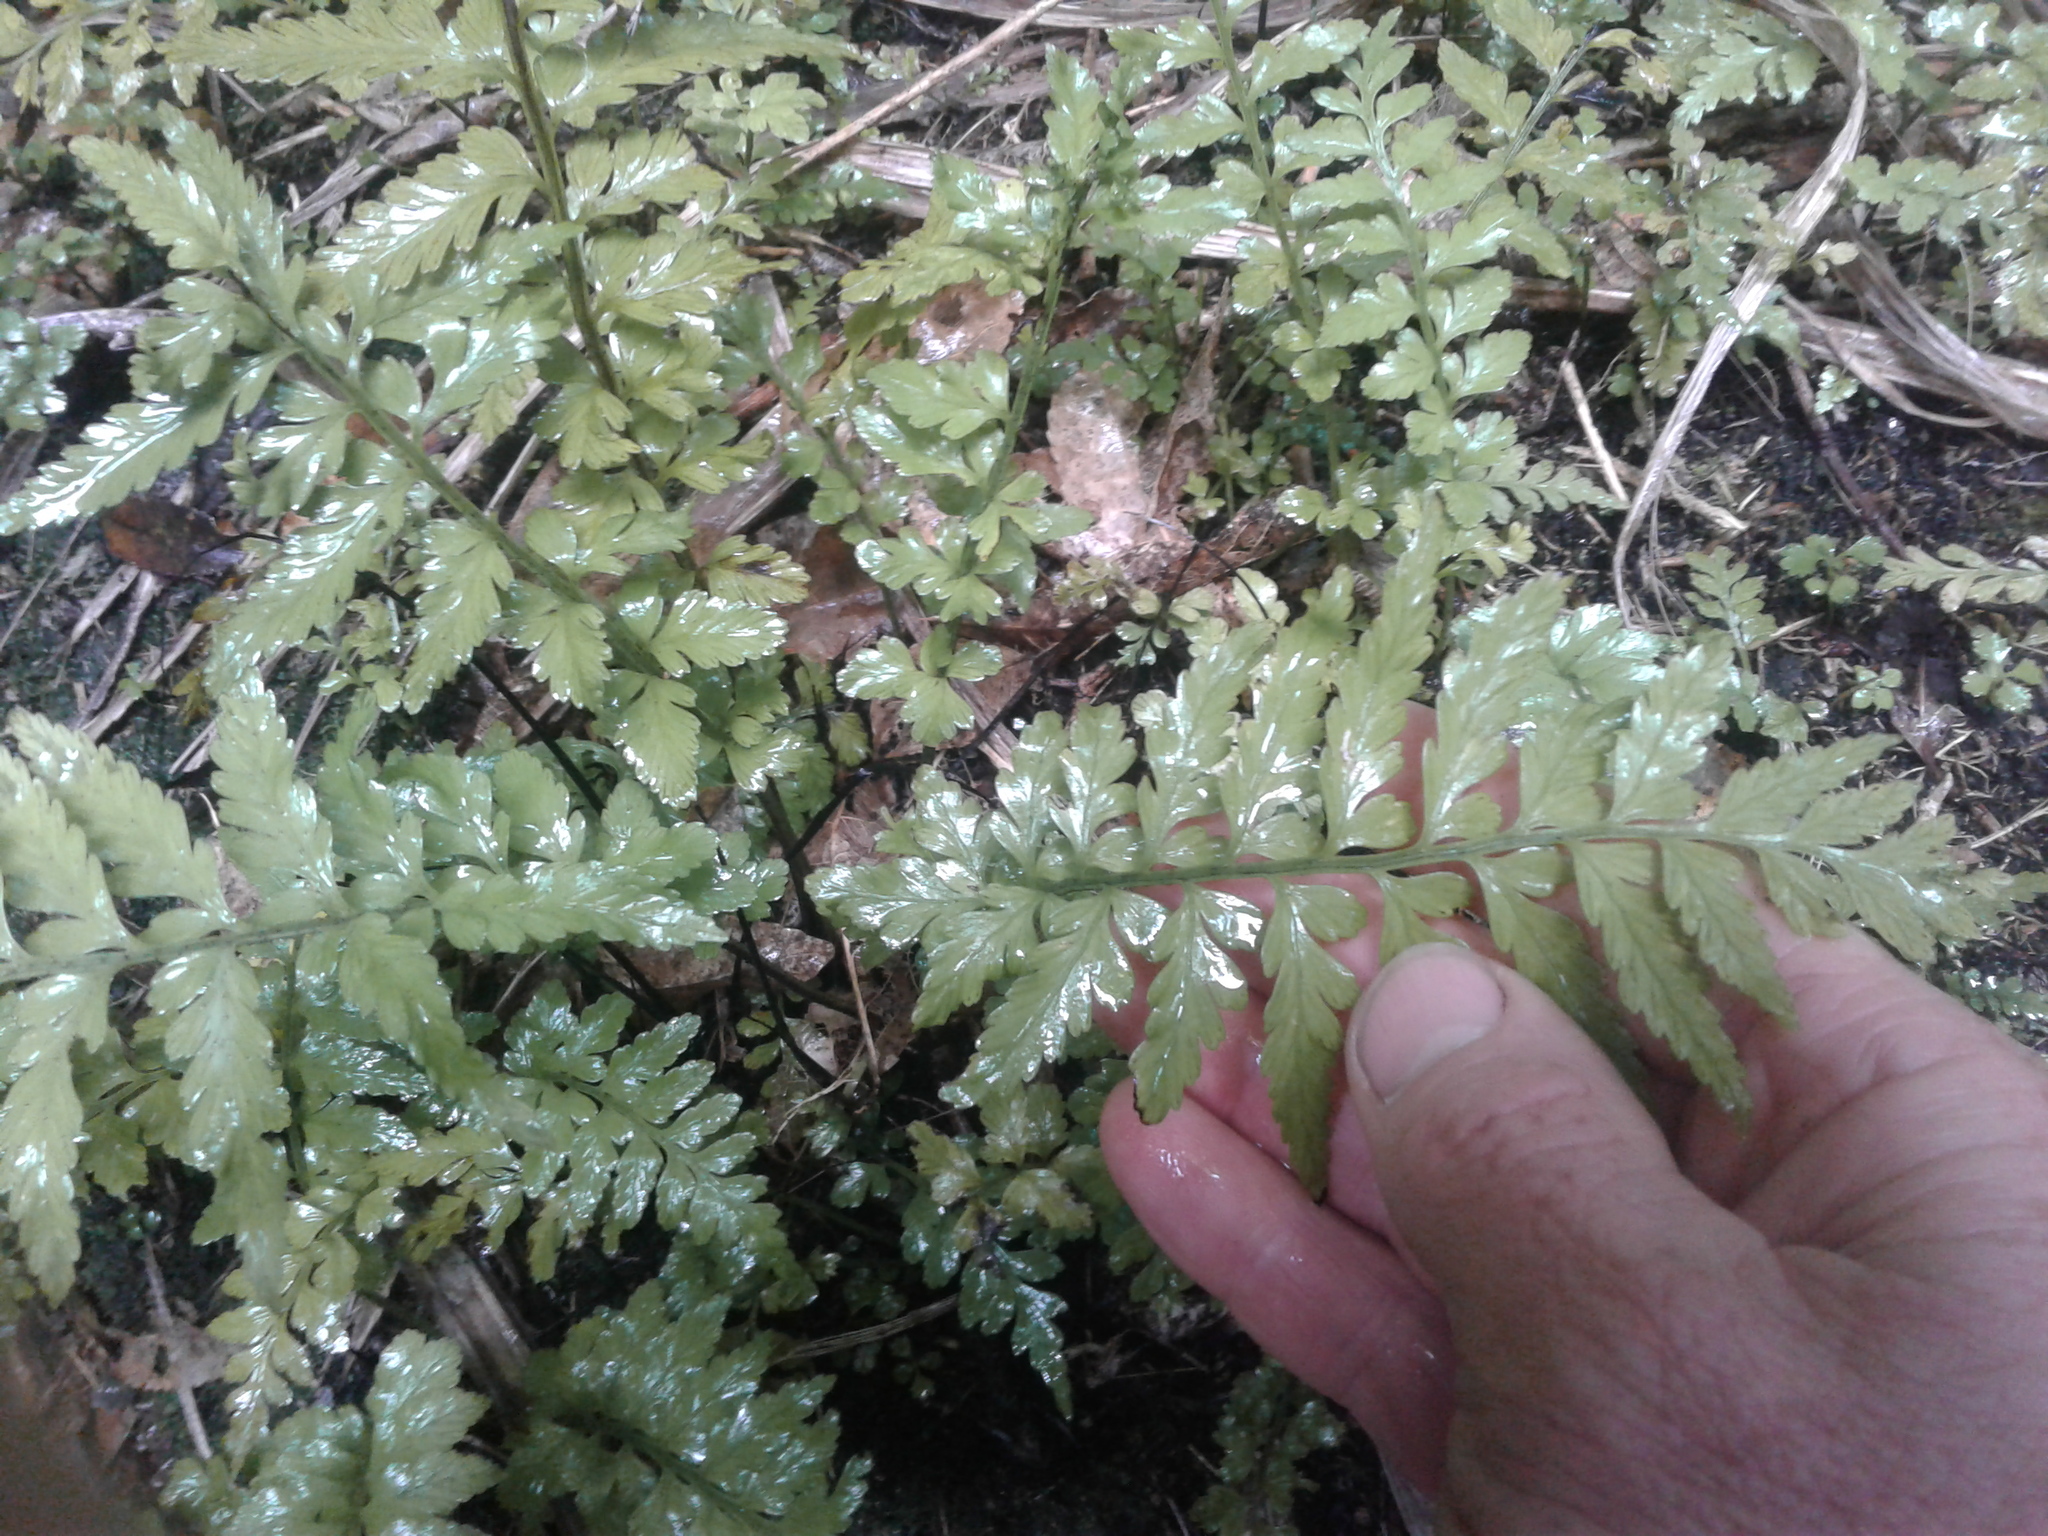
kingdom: Plantae
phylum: Tracheophyta
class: Polypodiopsida
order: Polypodiales
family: Aspleniaceae
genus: Asplenium
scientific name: Asplenium lamprophyllum
